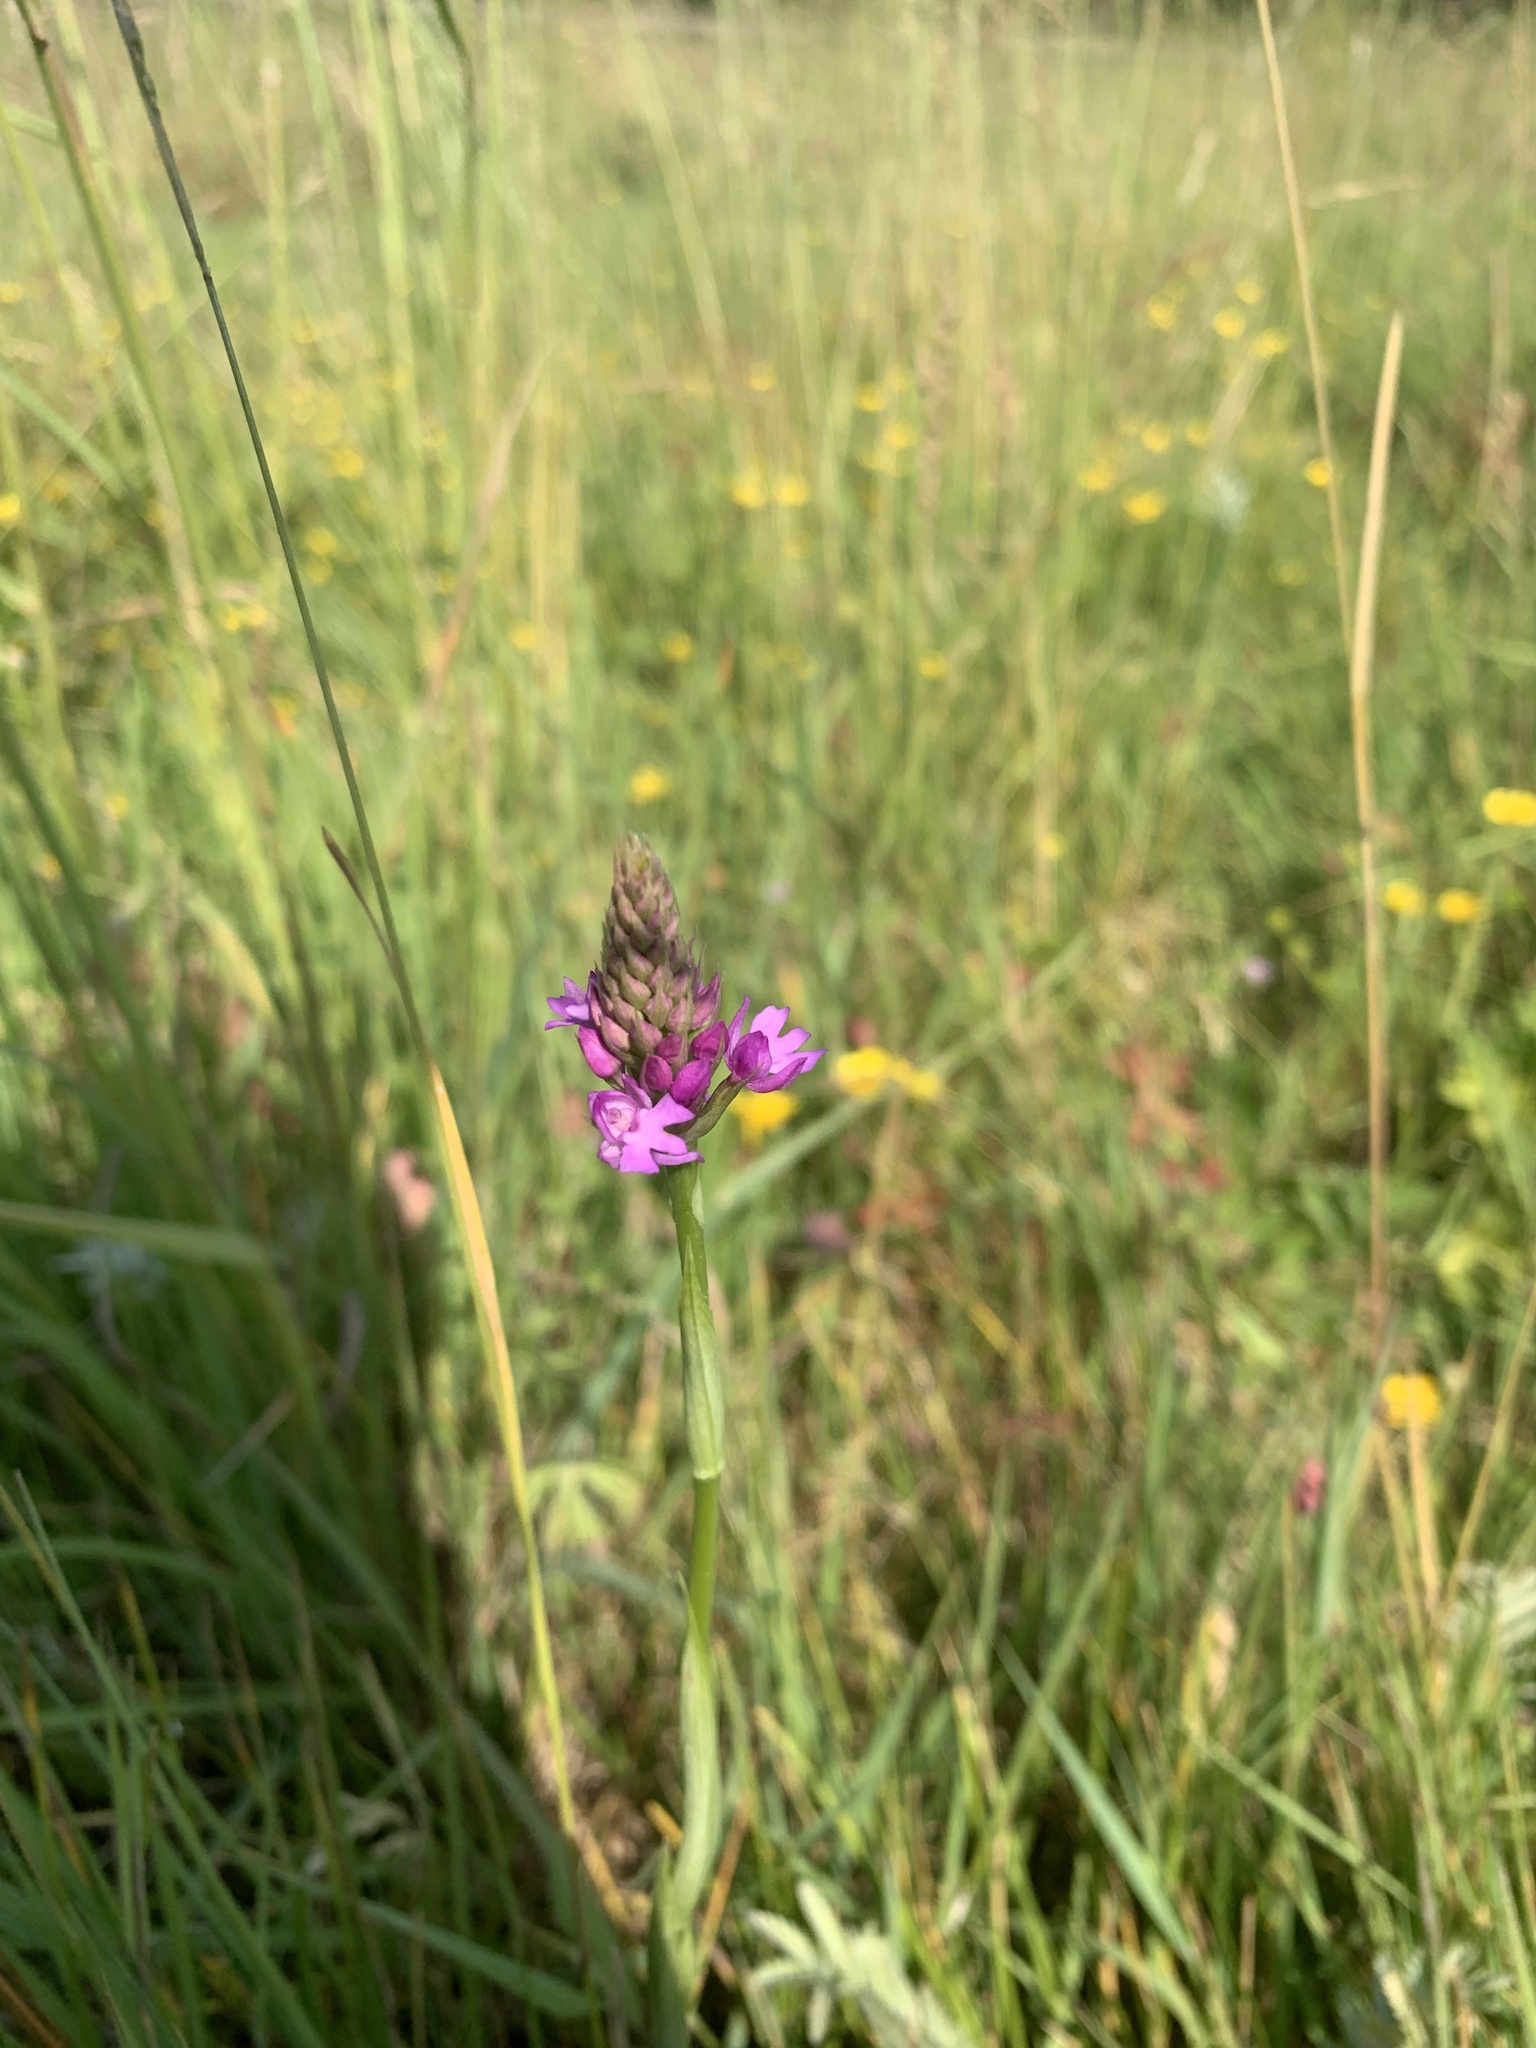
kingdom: Plantae
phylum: Tracheophyta
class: Liliopsida
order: Asparagales
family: Orchidaceae
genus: Anacamptis
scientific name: Anacamptis pyramidalis
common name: Pyramidal orchid
